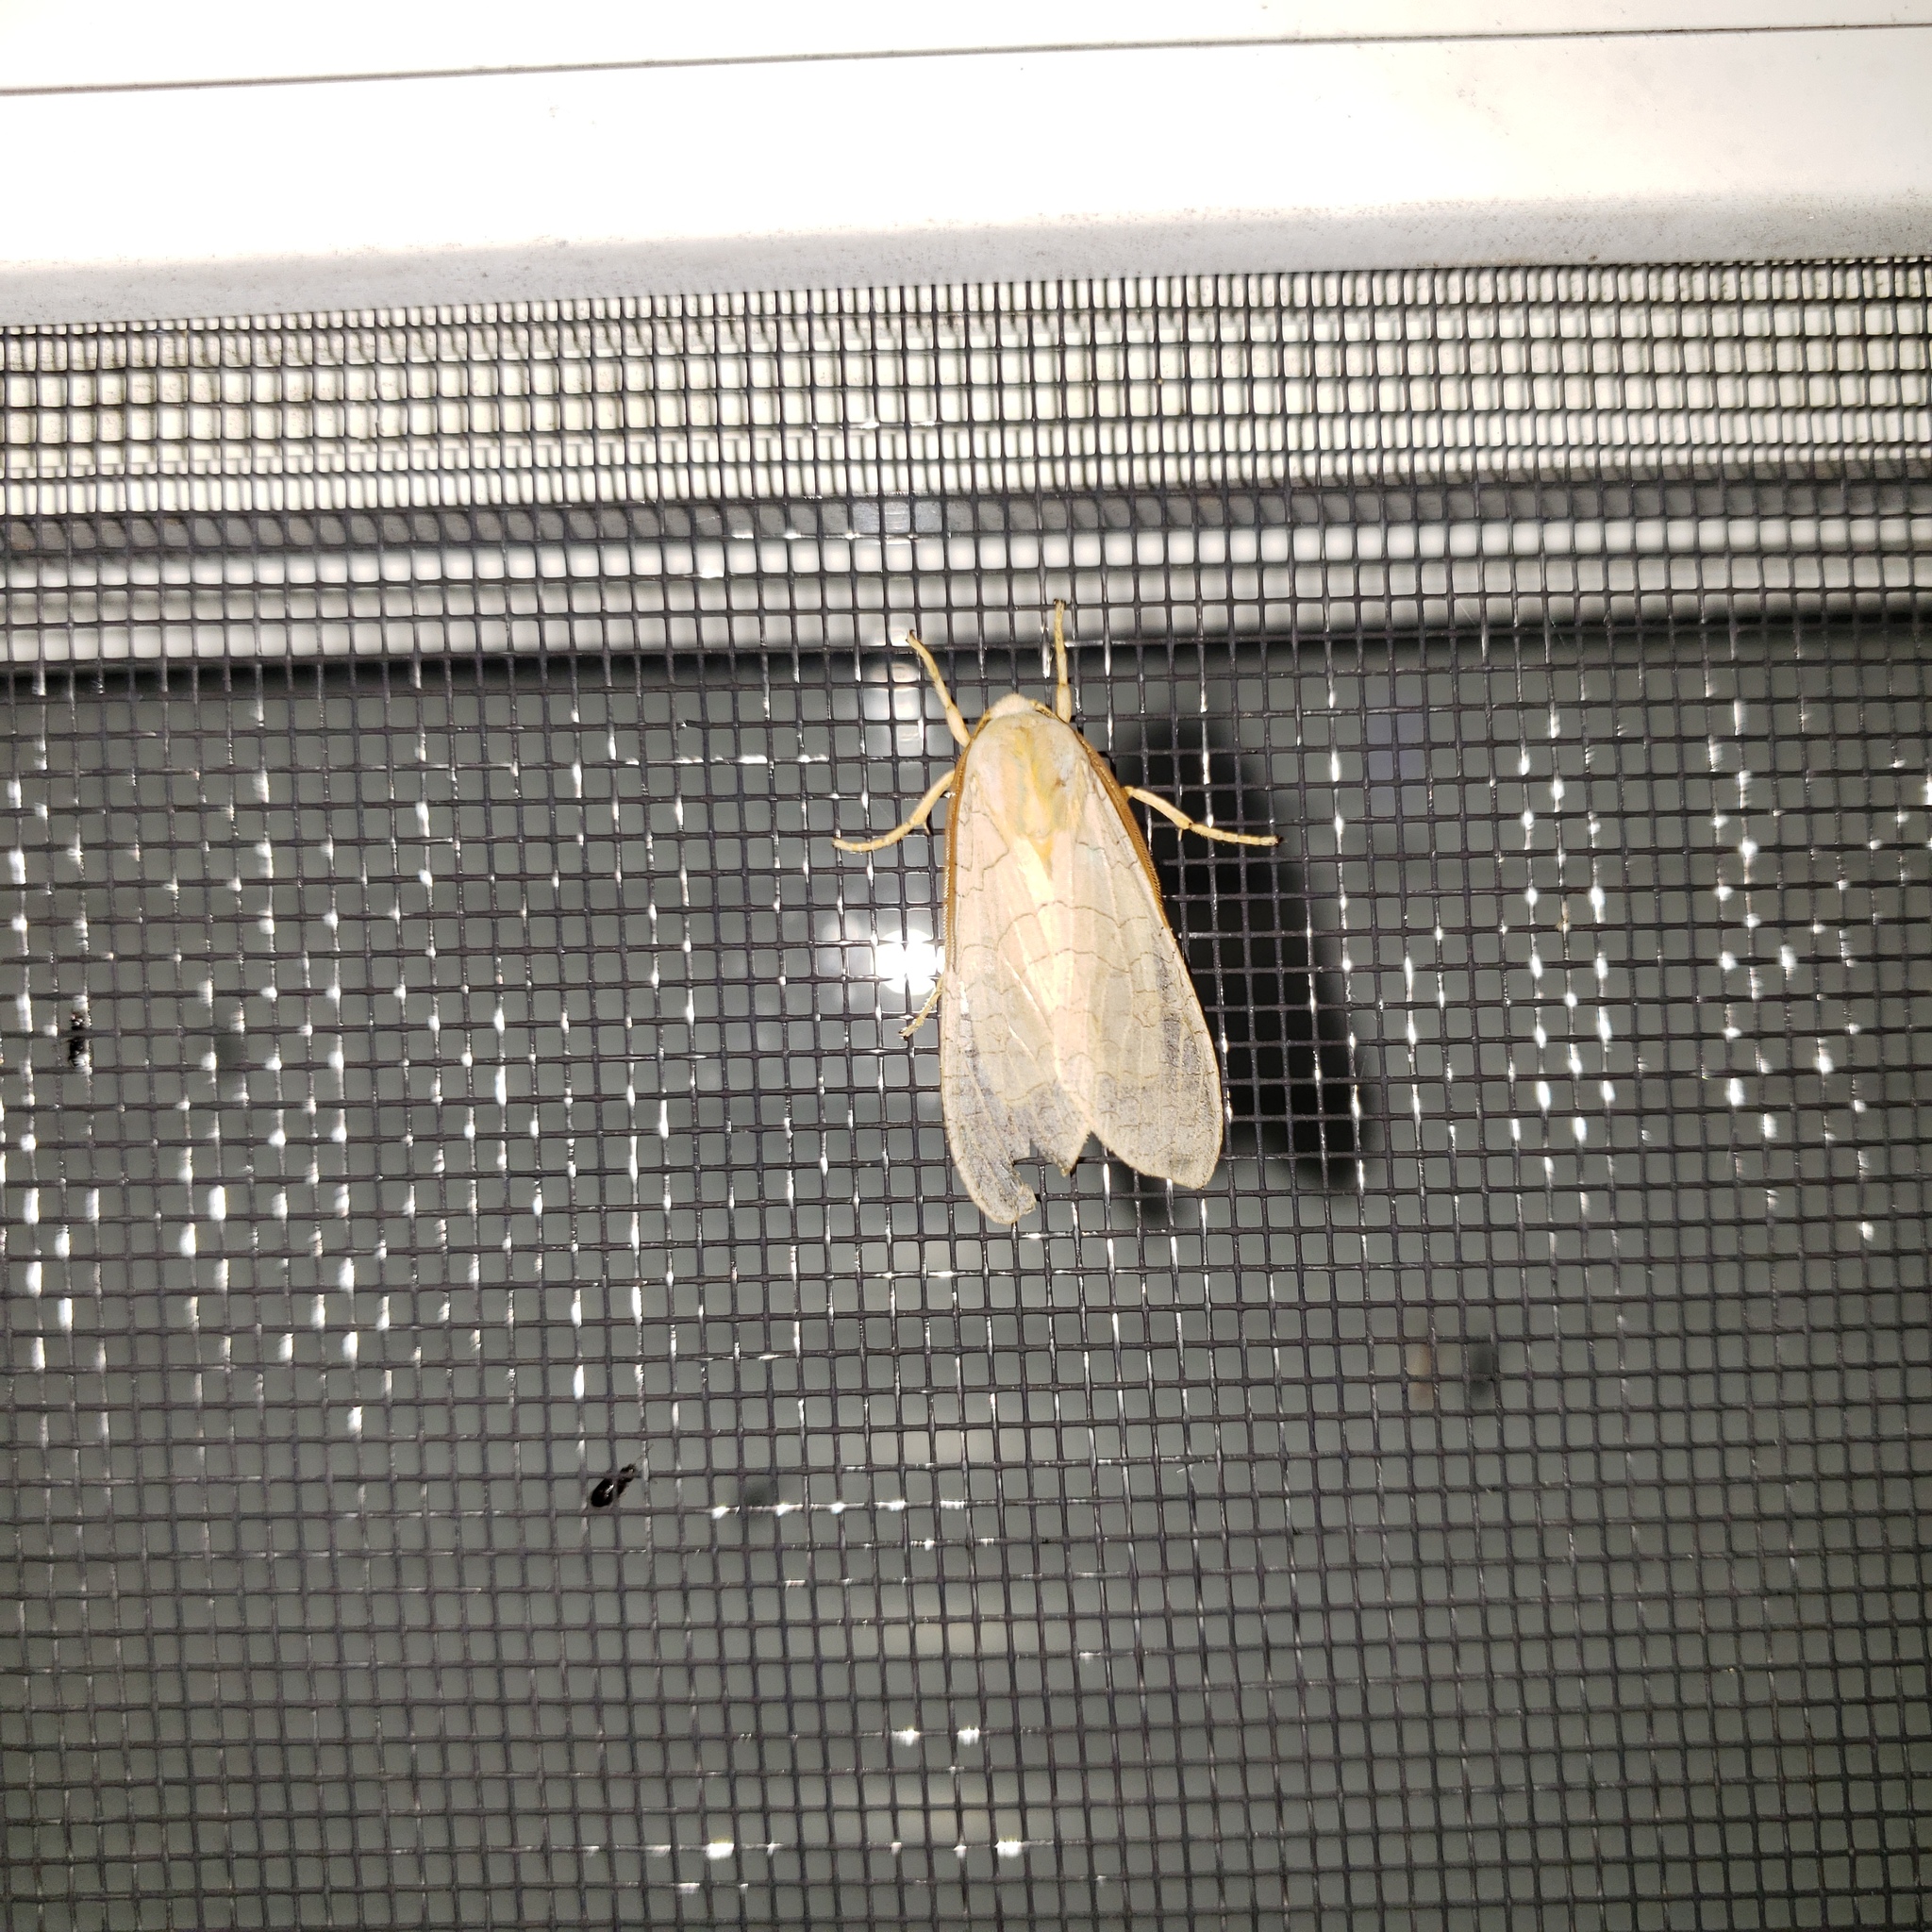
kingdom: Animalia
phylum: Arthropoda
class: Insecta
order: Lepidoptera
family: Erebidae
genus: Halysidota
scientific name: Halysidota
